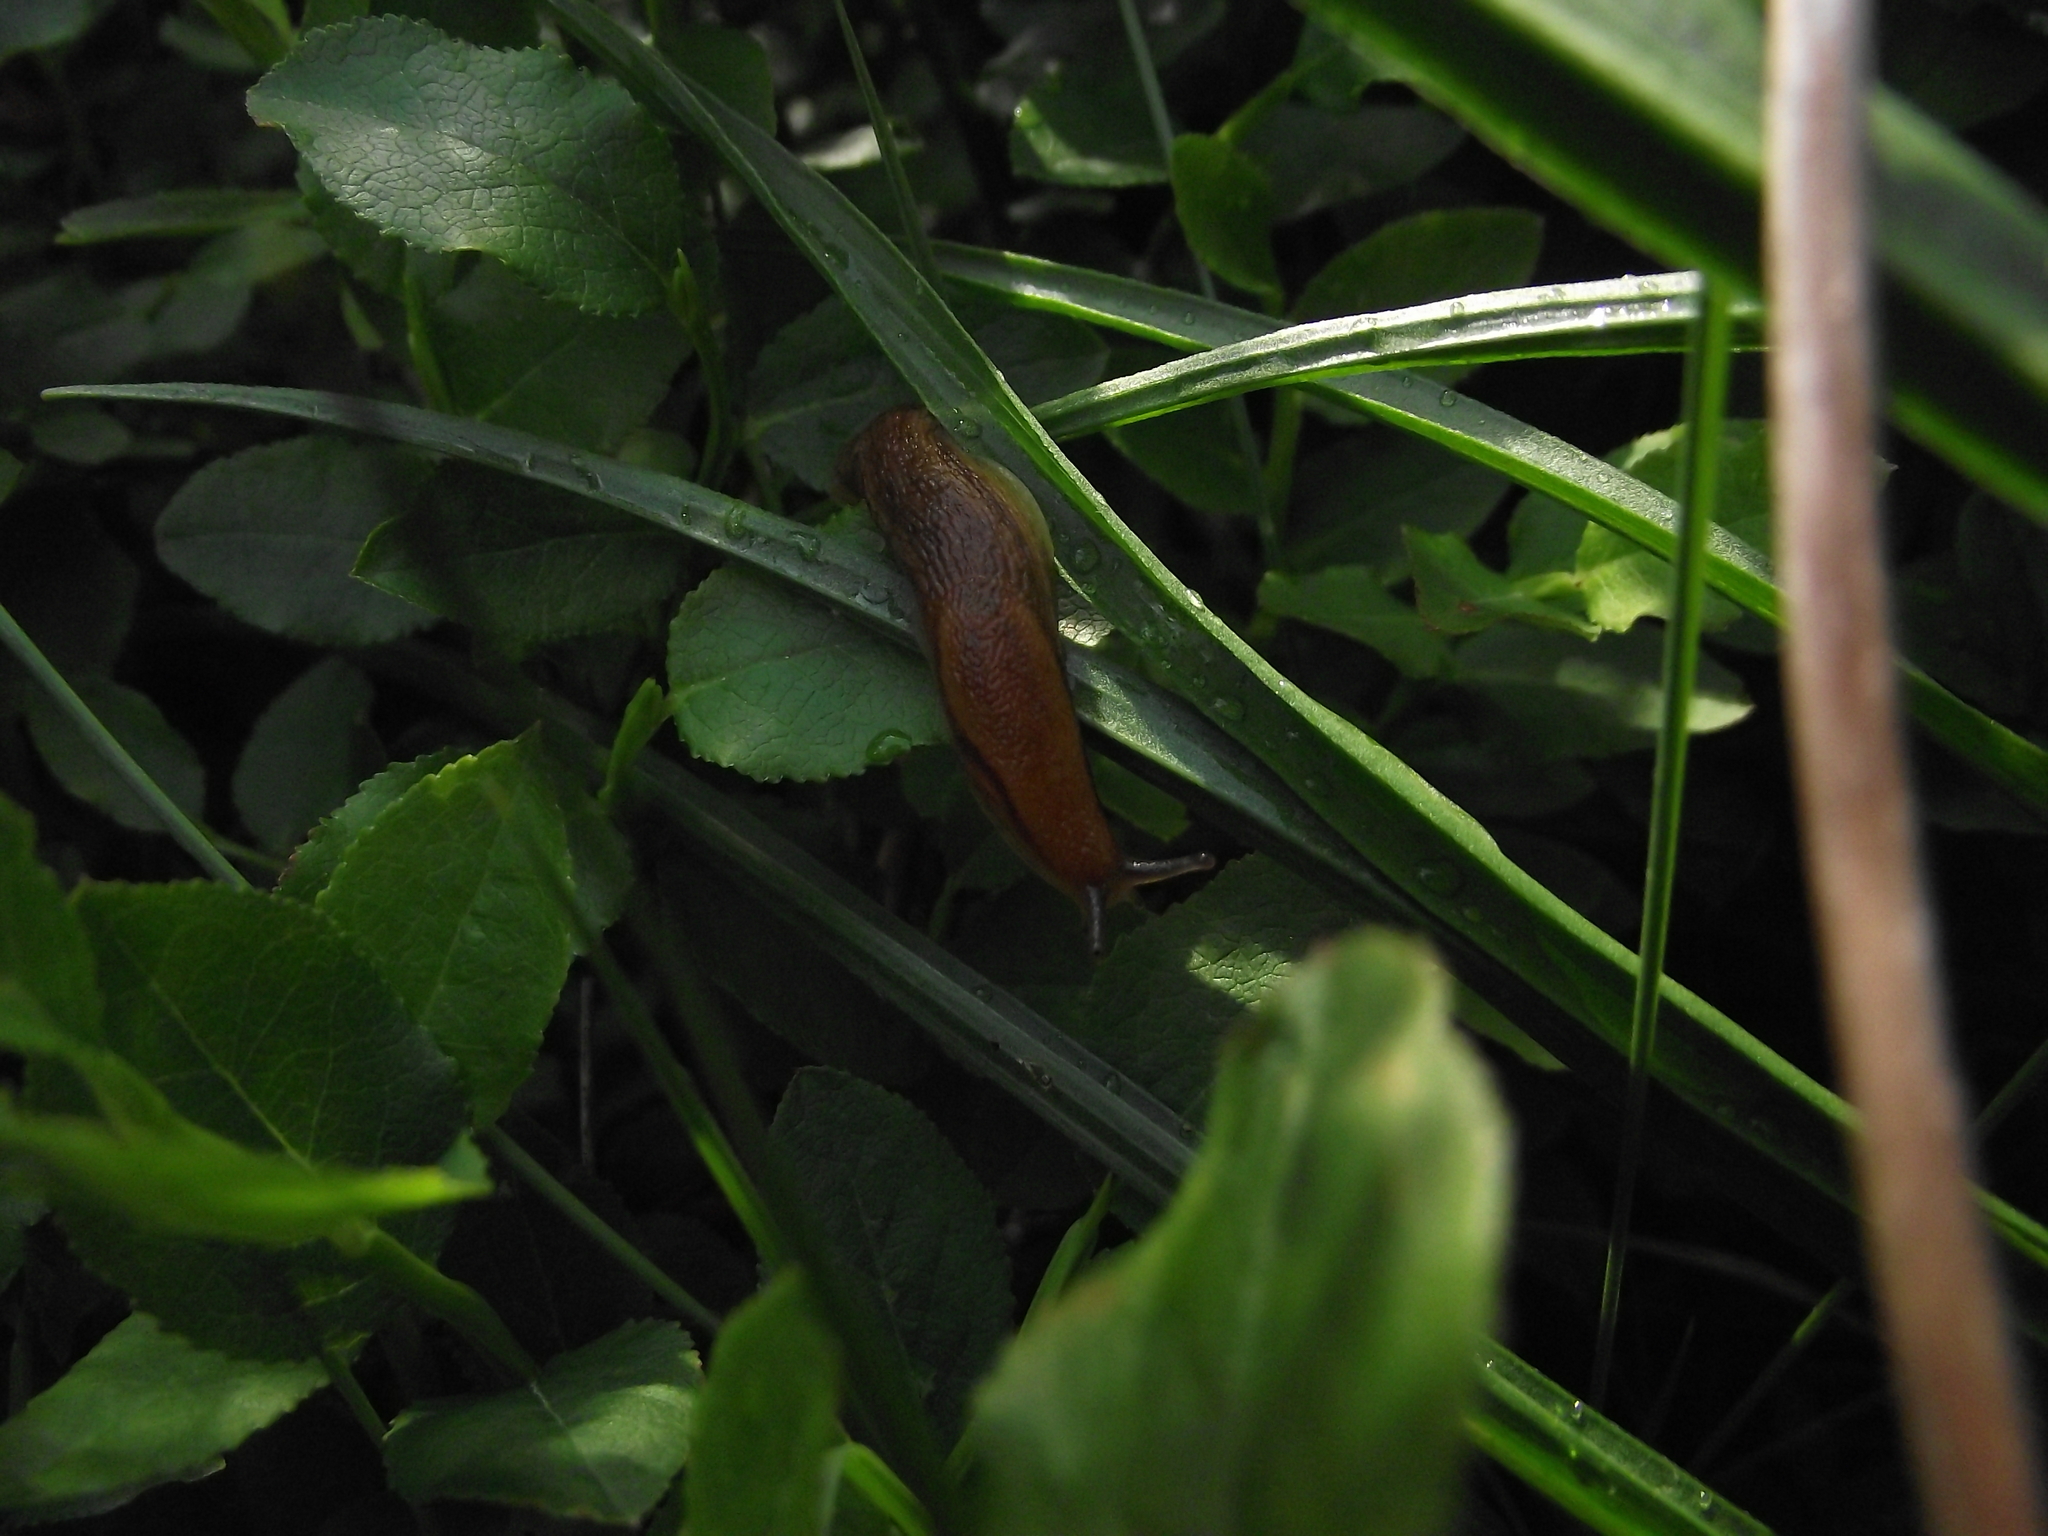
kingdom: Animalia
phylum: Mollusca
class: Gastropoda
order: Stylommatophora
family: Arionidae
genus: Arion
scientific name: Arion fuscus
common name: Northern dusky slug
